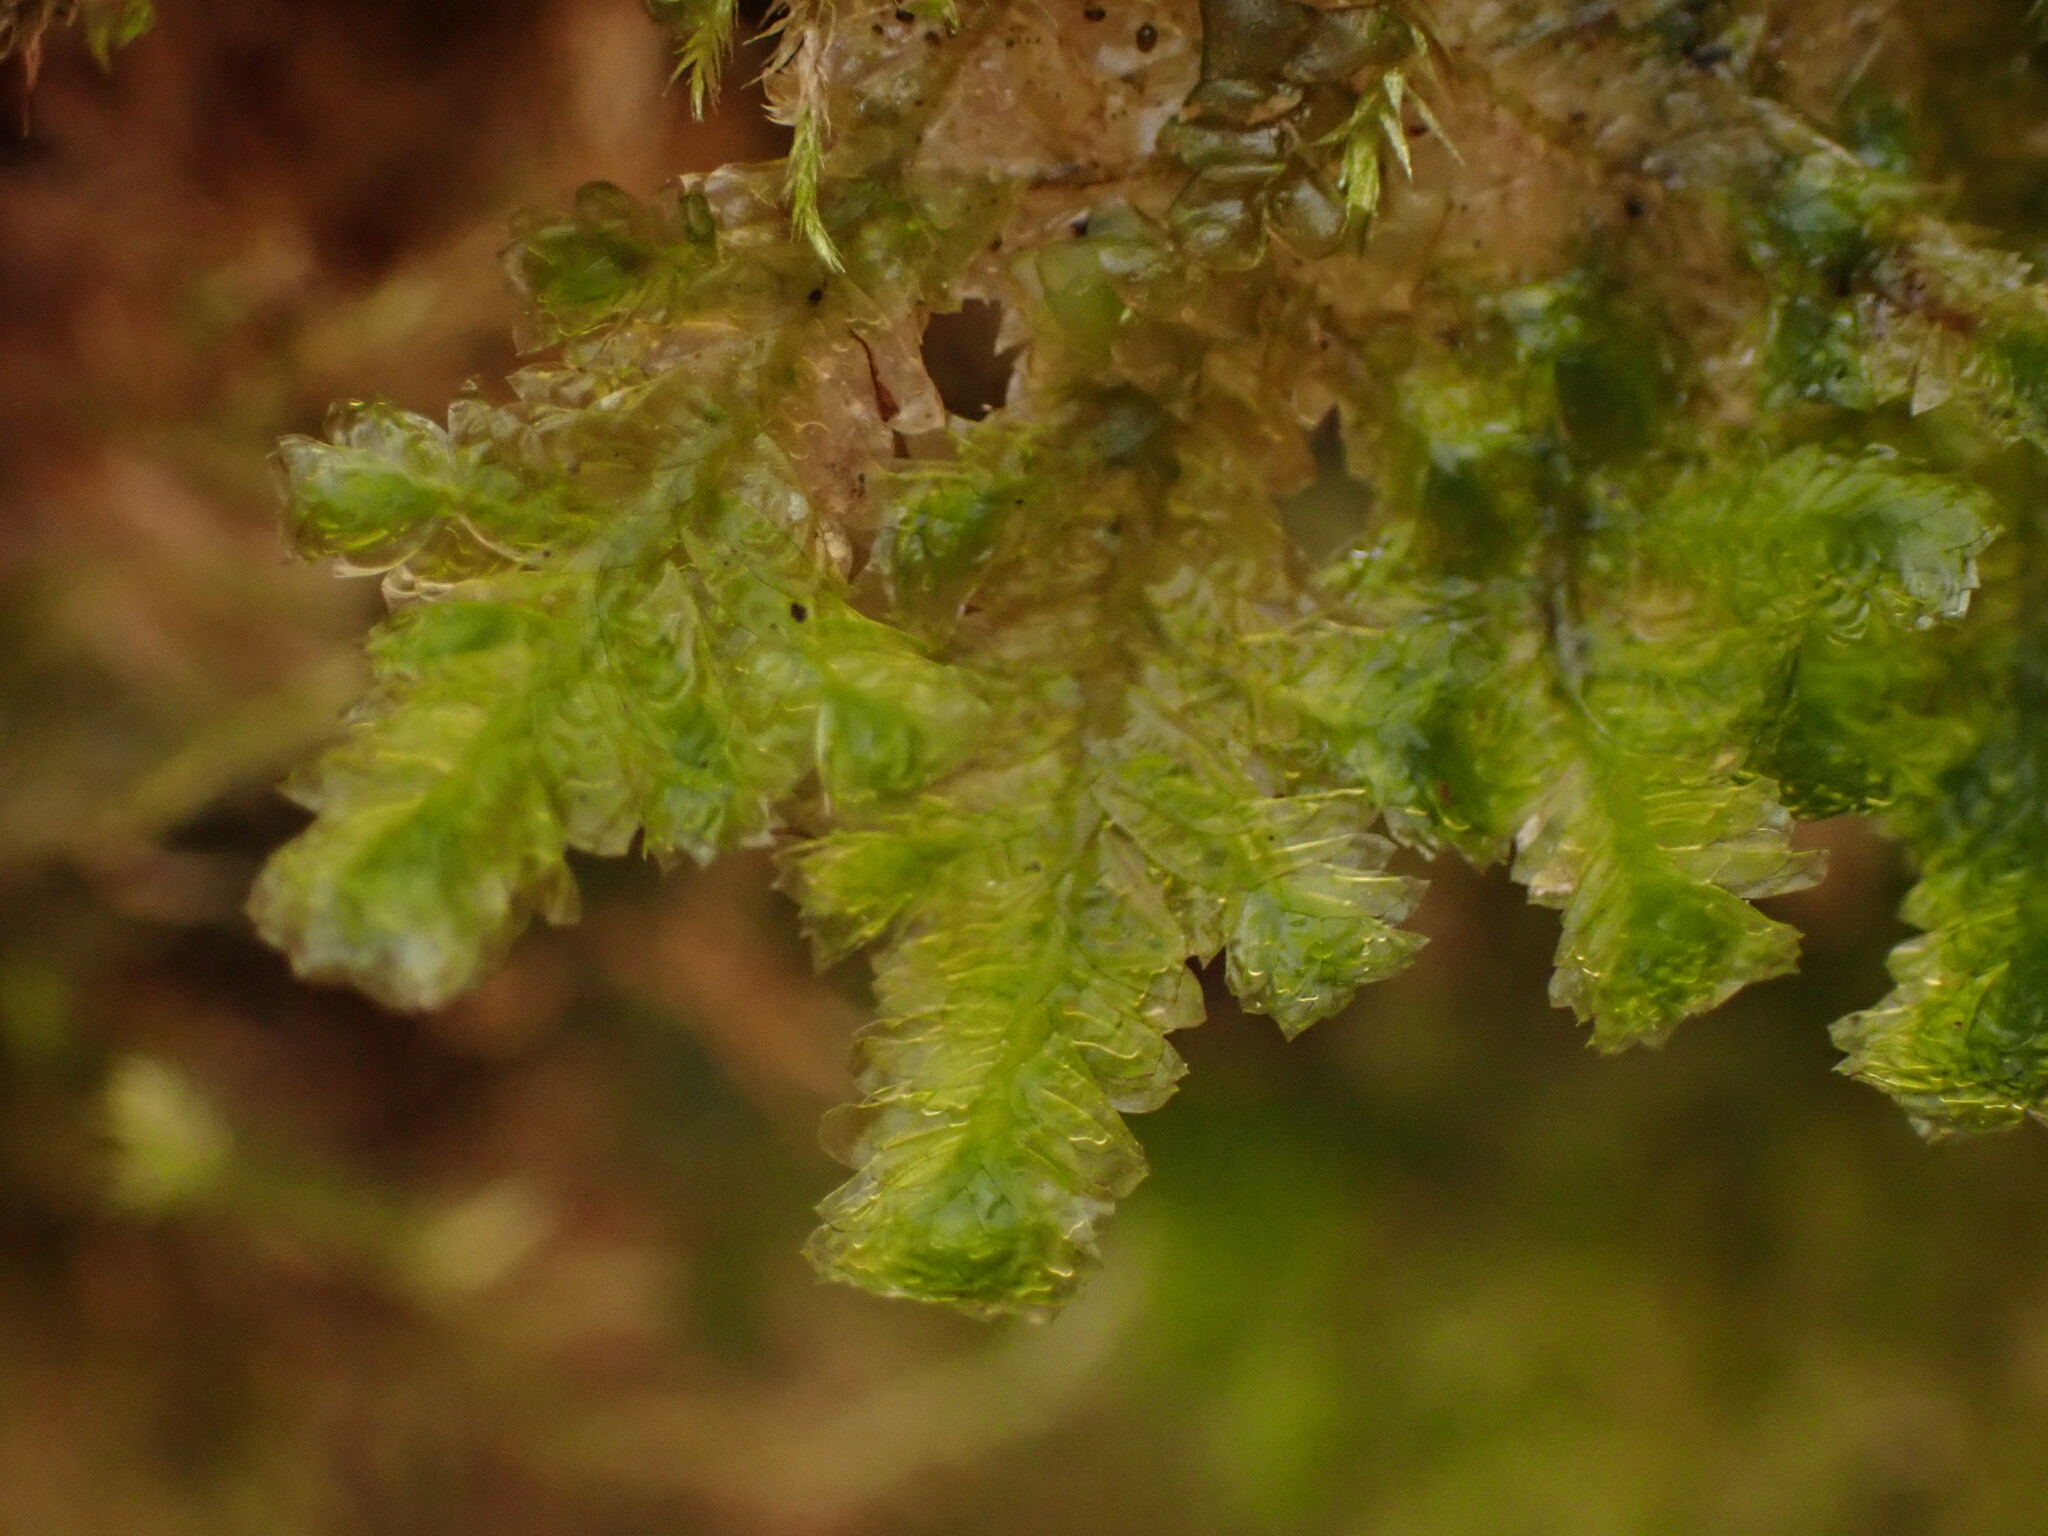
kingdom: Plantae
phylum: Bryophyta
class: Bryopsida
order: Hypnales
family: Neckeraceae
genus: Neckera
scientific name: Neckera pennata
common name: Feathery neckera
